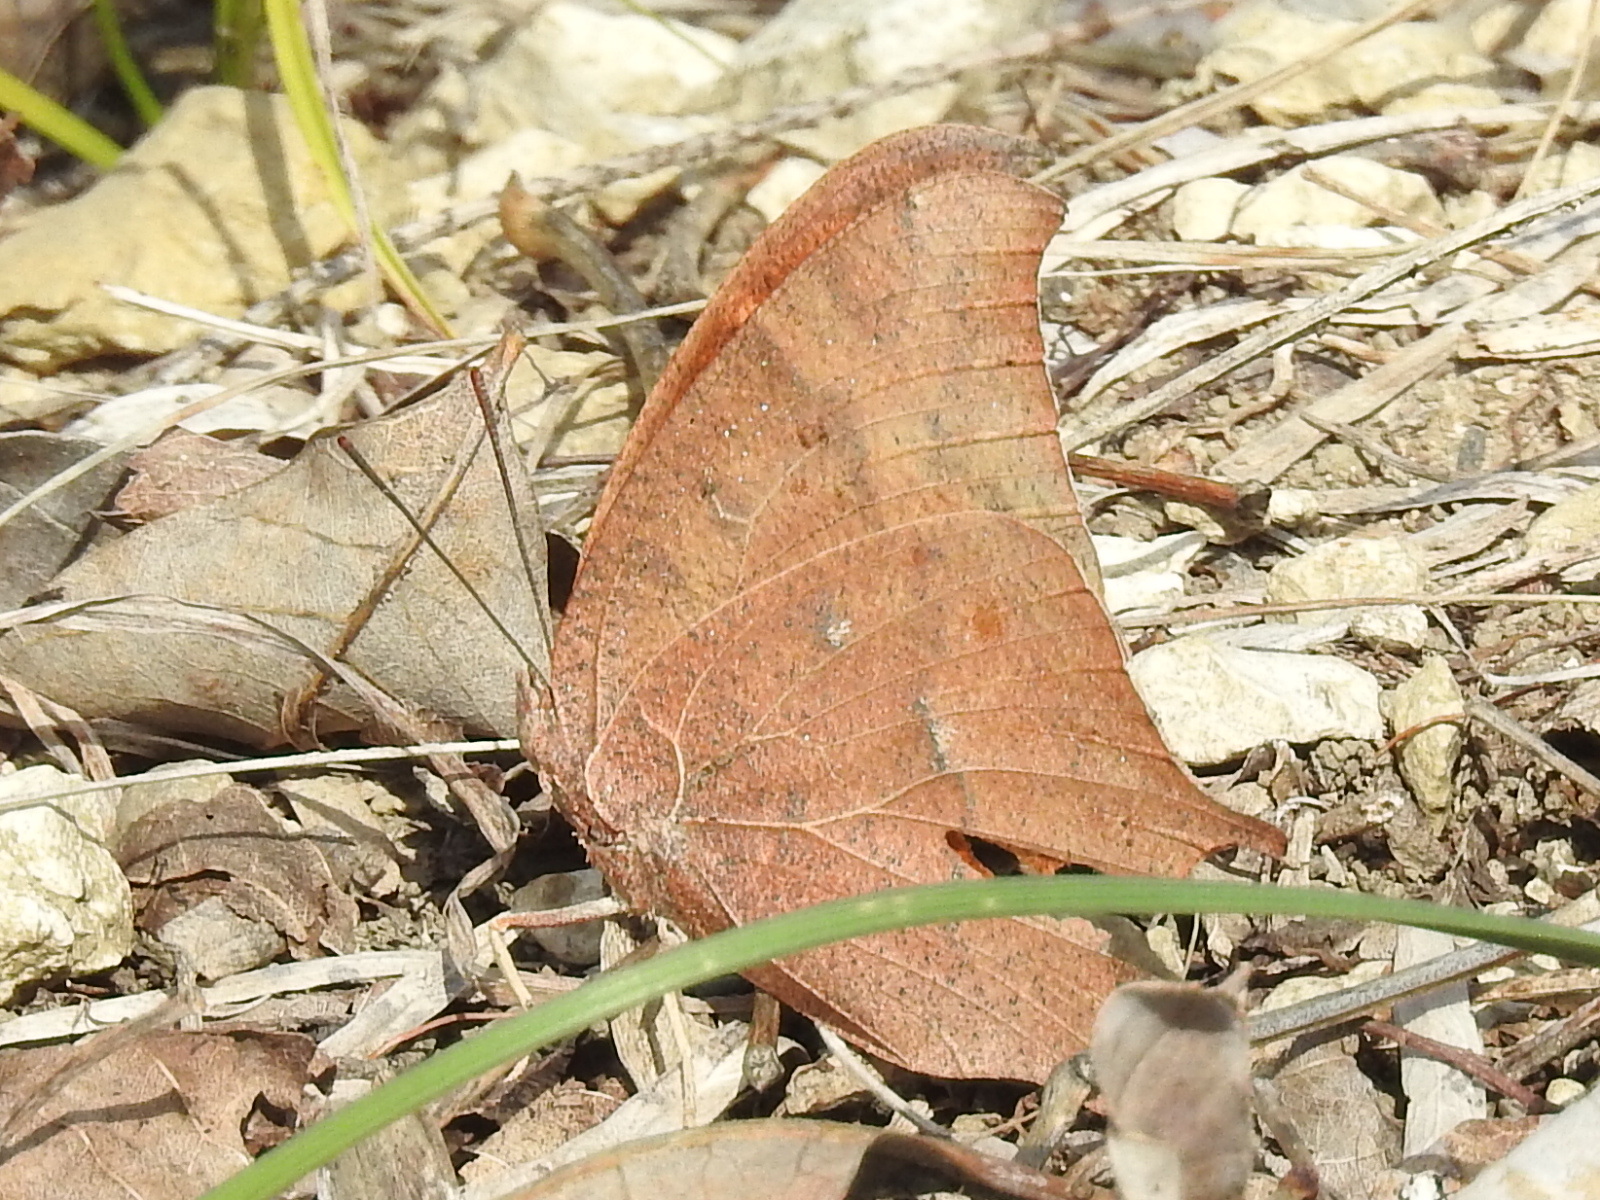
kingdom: Animalia
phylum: Arthropoda
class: Insecta
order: Lepidoptera
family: Nymphalidae
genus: Anaea
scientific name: Anaea andria
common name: Goatweed leafwing
